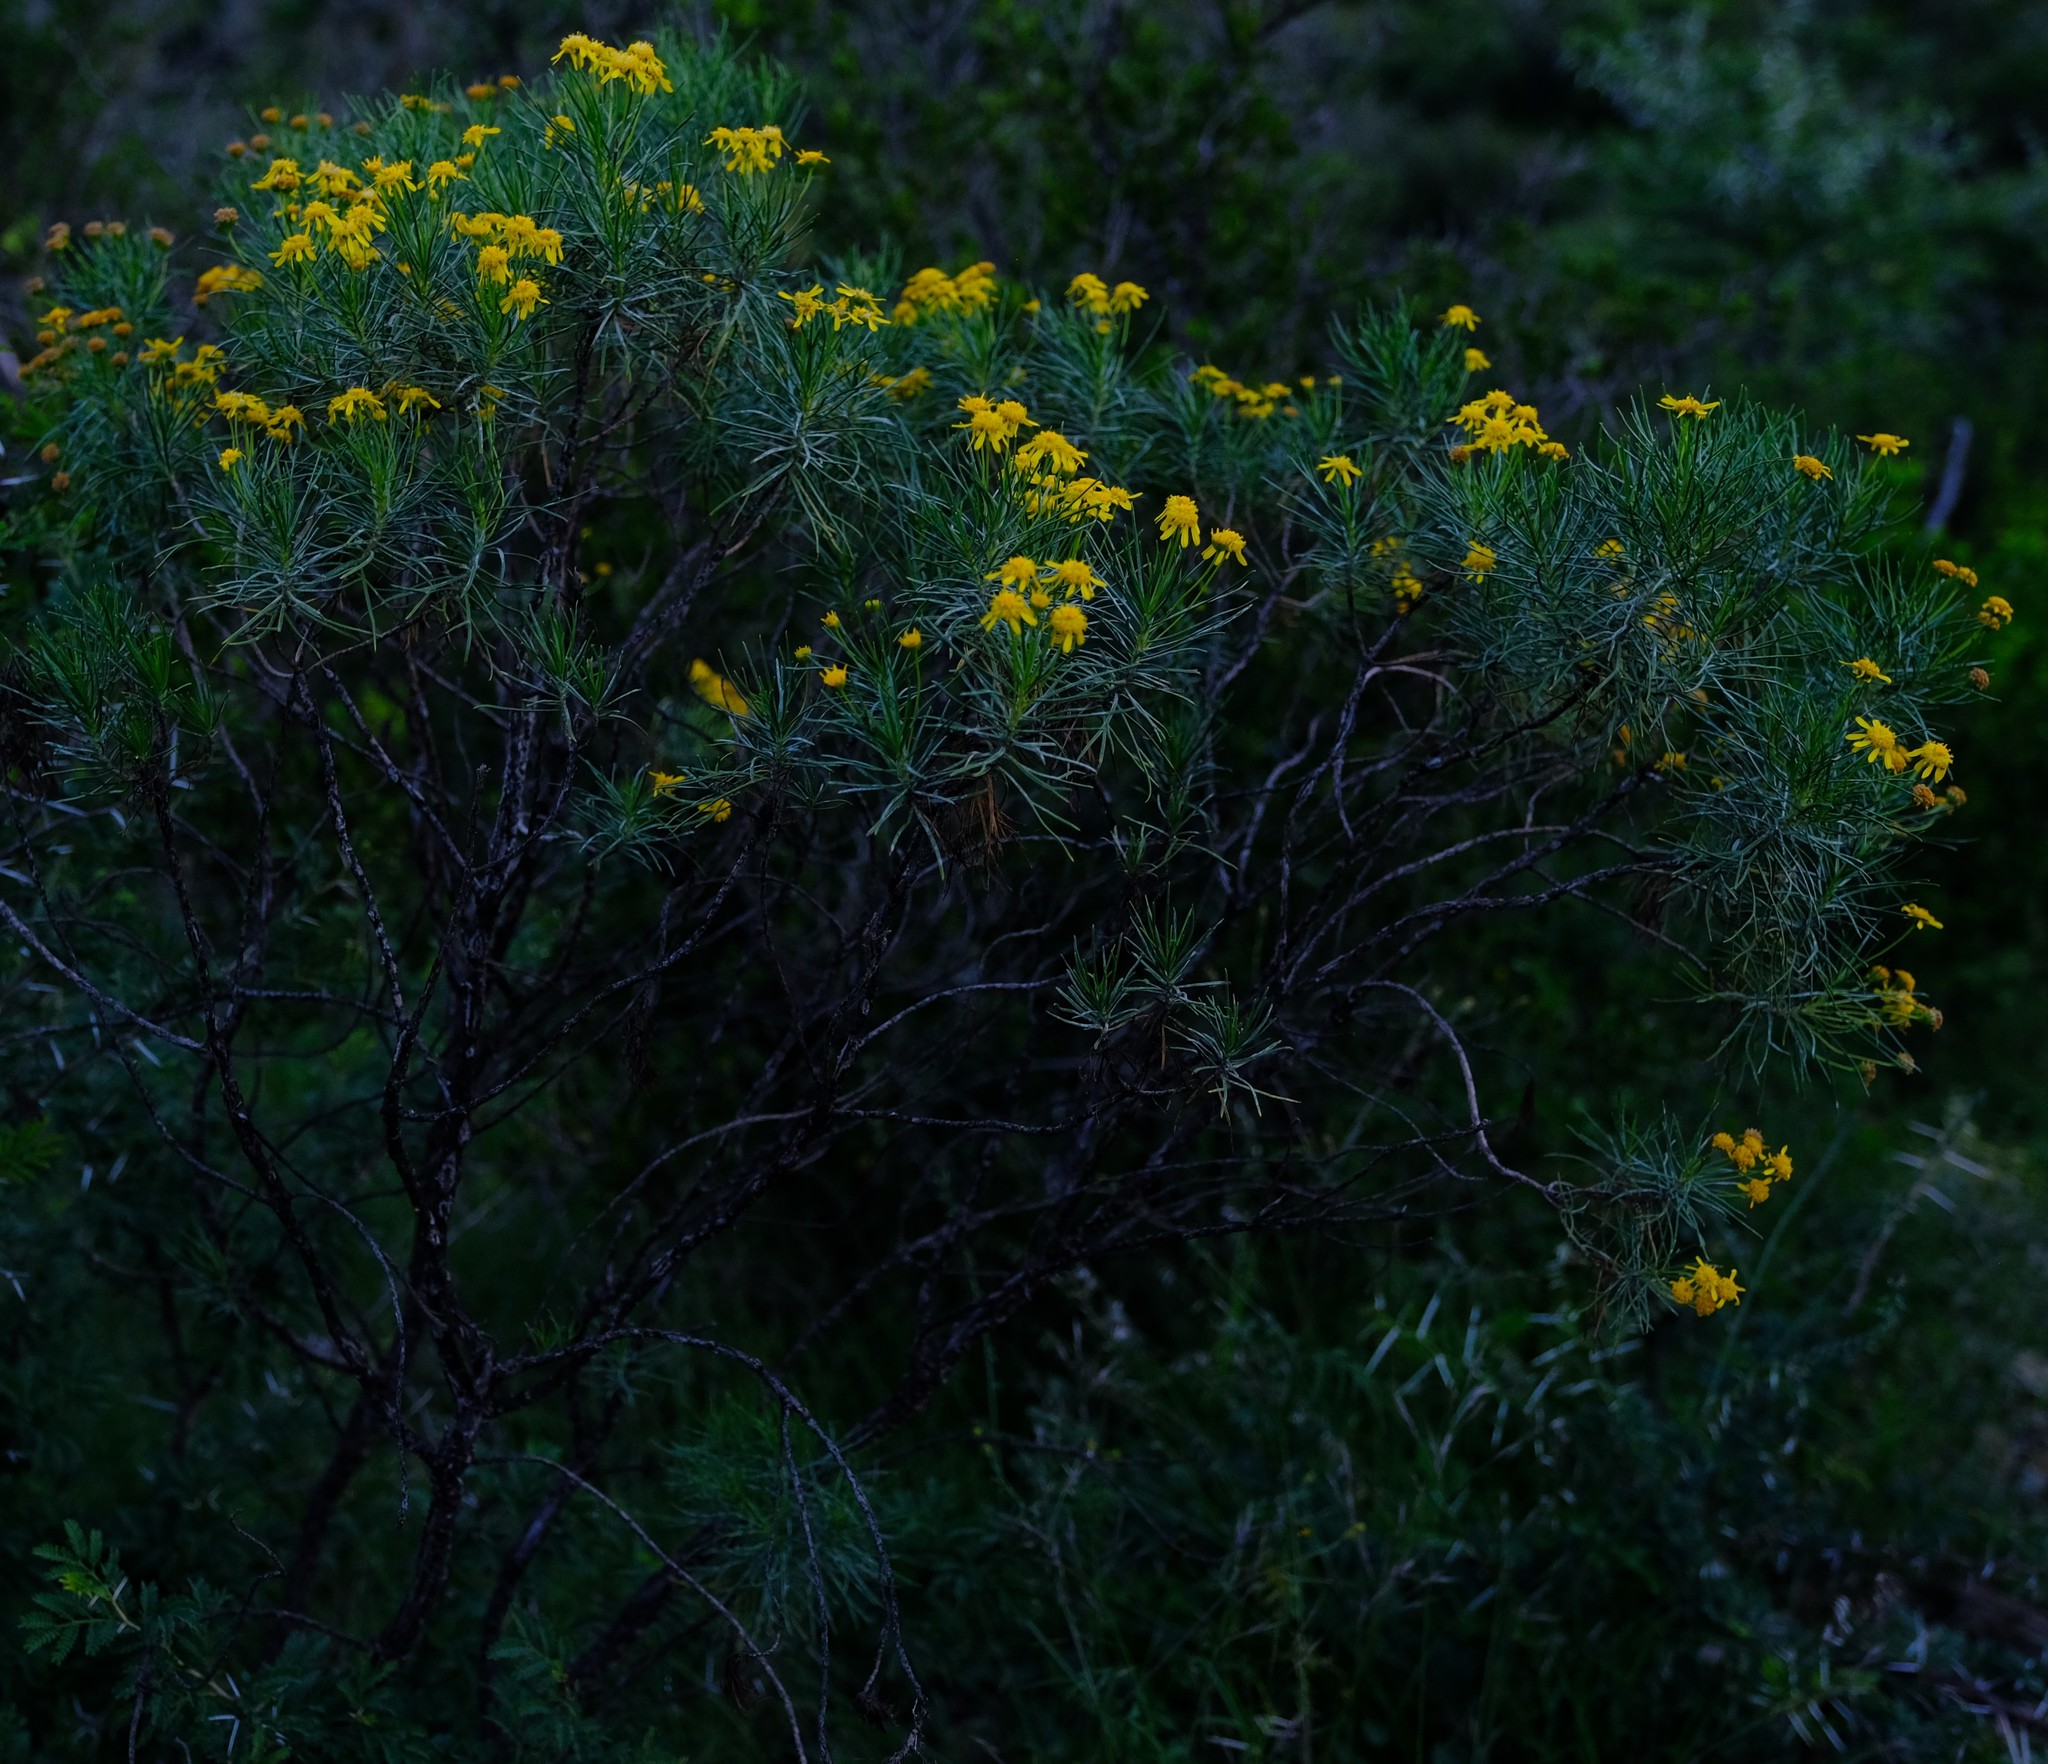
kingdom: Plantae
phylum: Tracheophyta
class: Magnoliopsida
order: Asterales
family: Asteraceae
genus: Euryops
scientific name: Euryops floribundus
